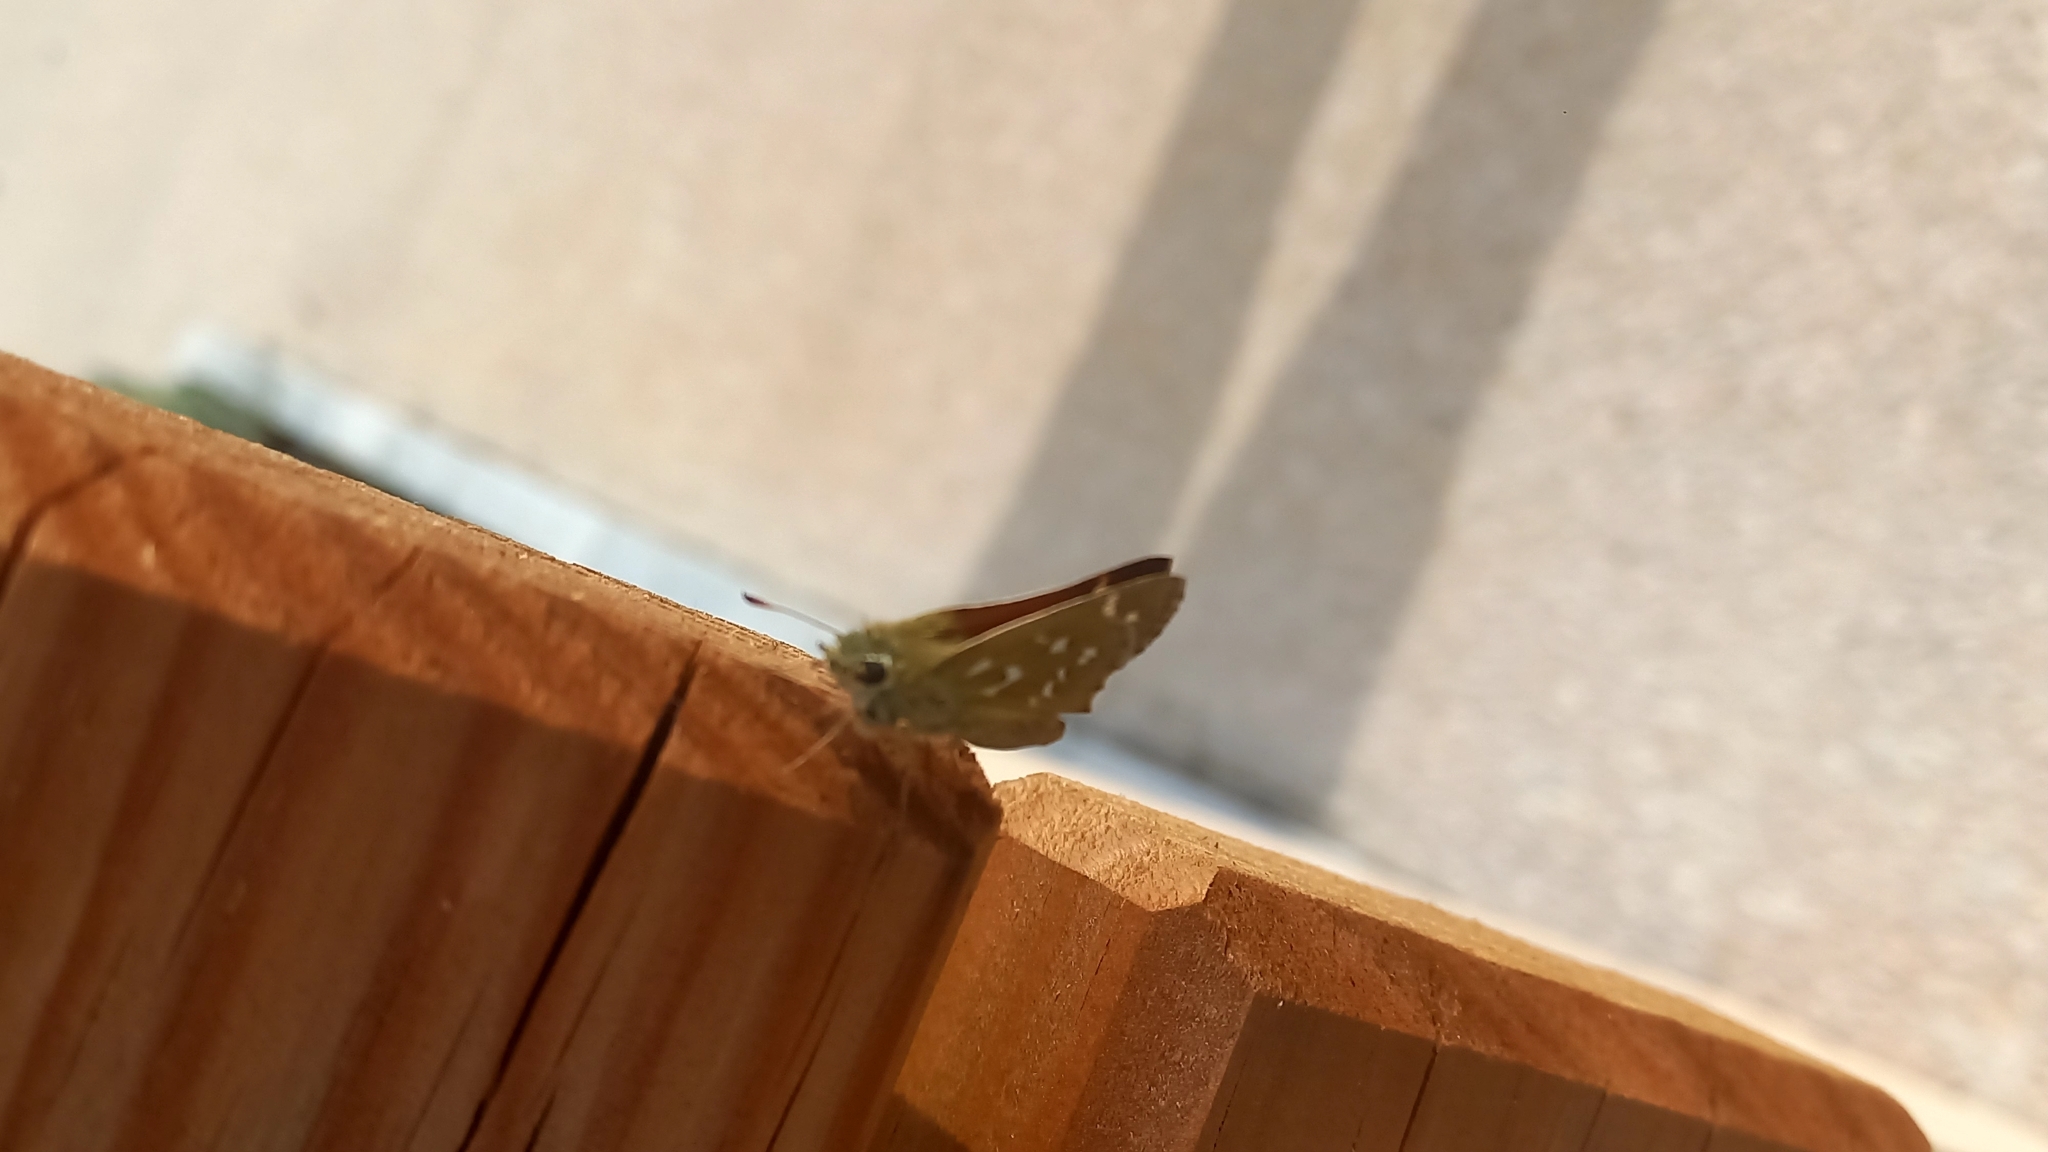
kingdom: Animalia
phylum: Arthropoda
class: Insecta
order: Lepidoptera
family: Hesperiidae
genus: Hesperia
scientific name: Hesperia comma
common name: Common branded skipper
